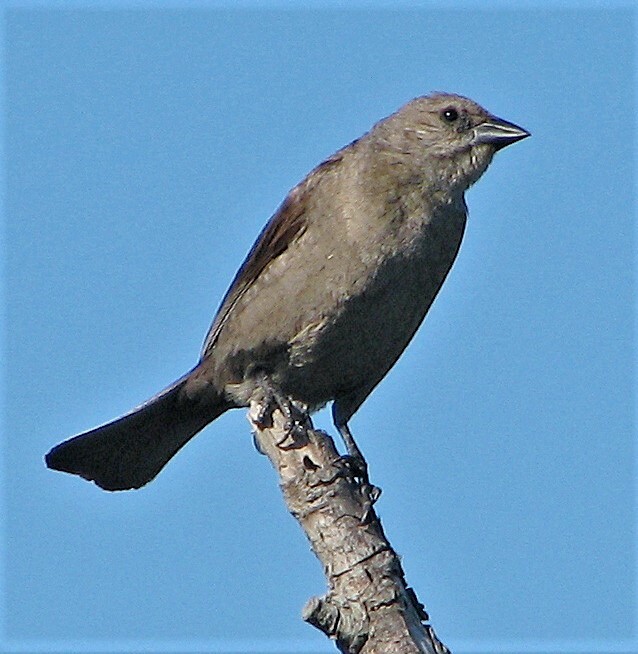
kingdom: Animalia
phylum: Chordata
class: Aves
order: Passeriformes
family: Icteridae
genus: Molothrus
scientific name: Molothrus bonariensis
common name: Shiny cowbird
